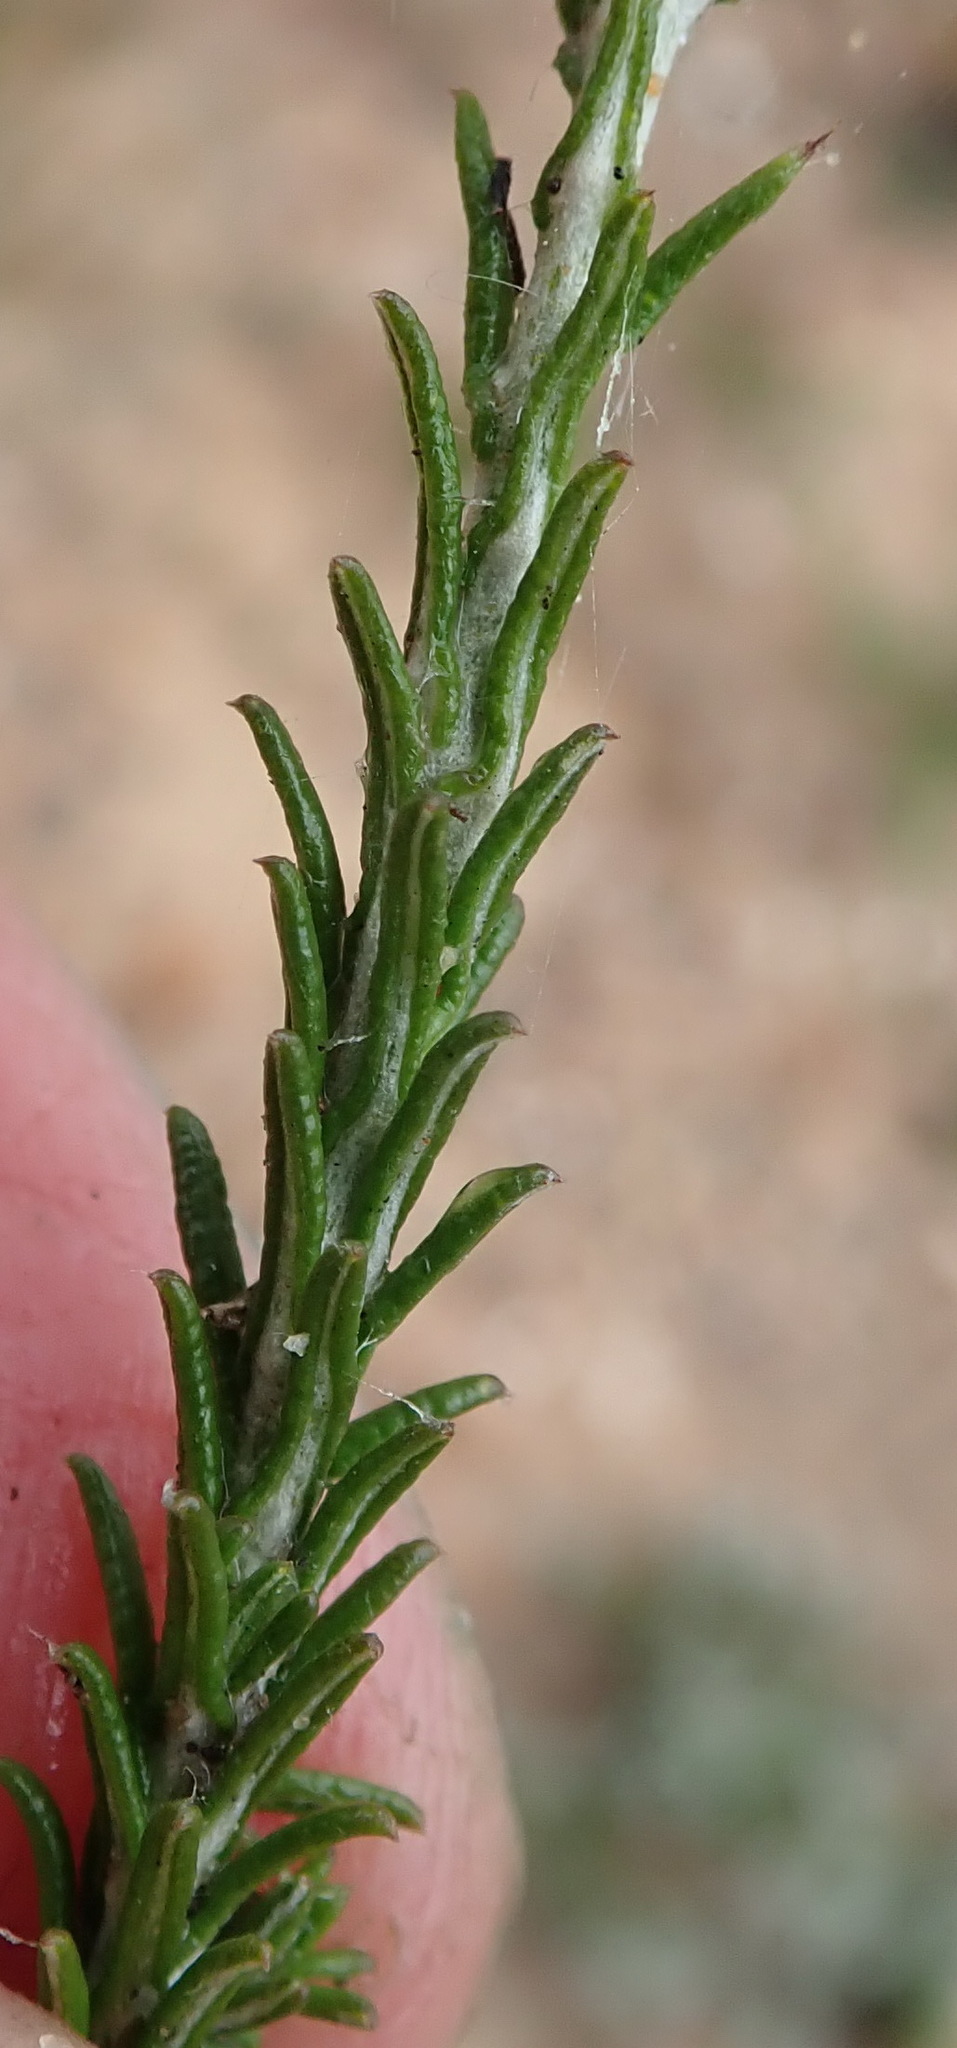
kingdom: Plantae
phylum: Tracheophyta
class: Magnoliopsida
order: Asterales
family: Asteraceae
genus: Helichrysum
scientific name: Helichrysum teretifolium
